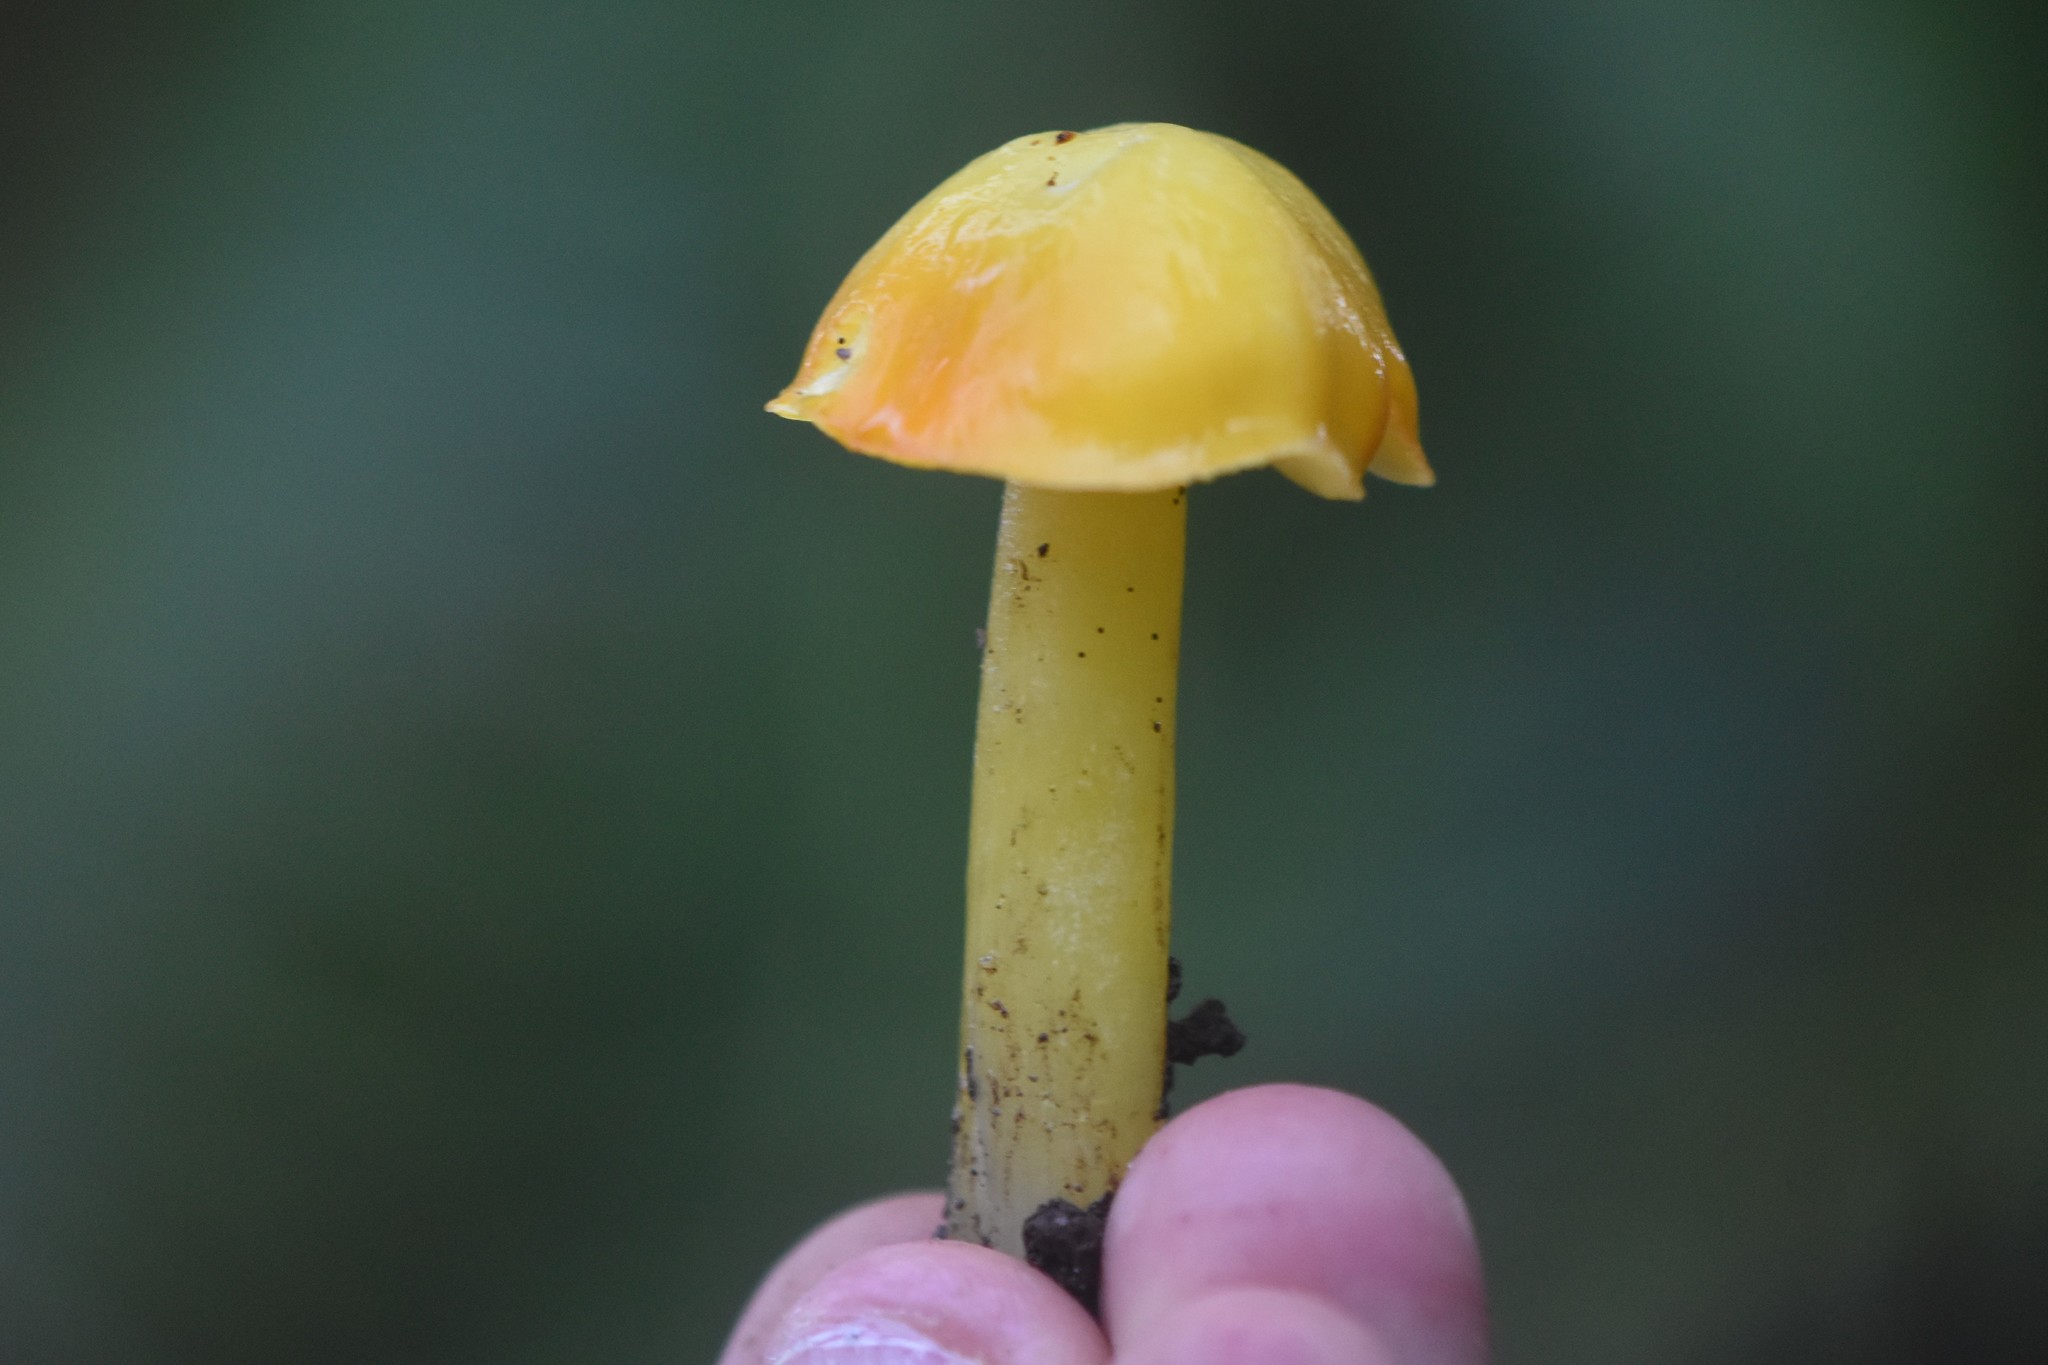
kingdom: Fungi
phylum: Basidiomycota
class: Agaricomycetes
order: Agaricales
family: Hygrophoraceae
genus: Hygrocybe
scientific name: Hygrocybe flavescens
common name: Golden waxy cap
